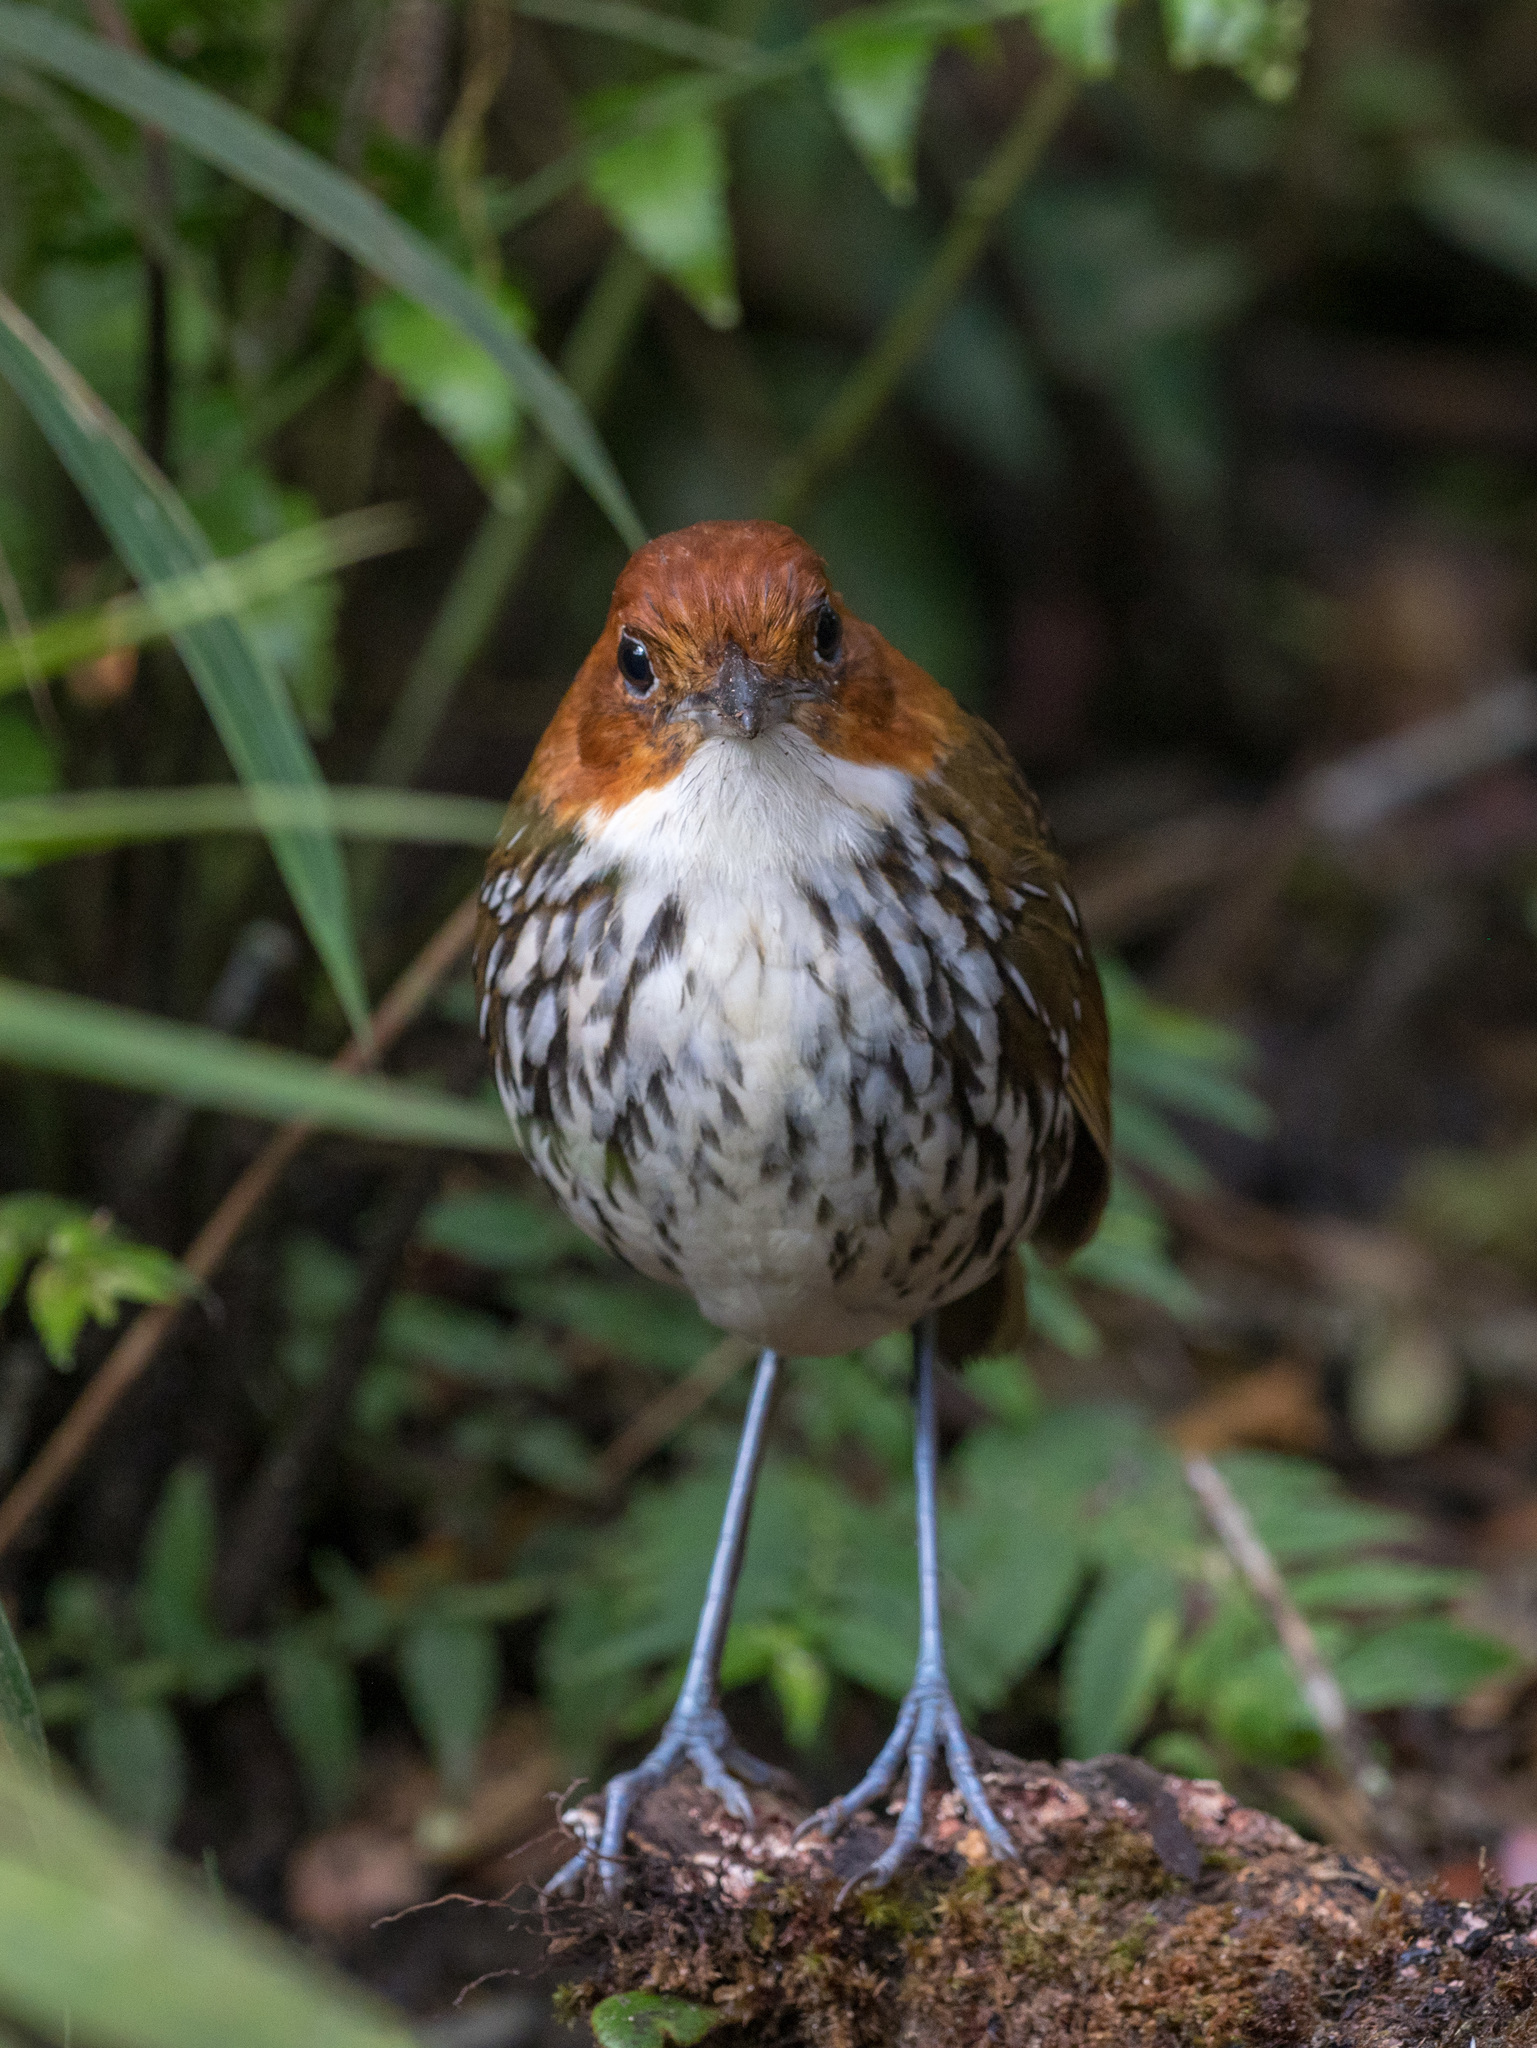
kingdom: Animalia
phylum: Chordata
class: Aves
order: Passeriformes
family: Grallariidae
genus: Grallaria
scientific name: Grallaria ruficapilla
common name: Chestnut-crowned antpitta
